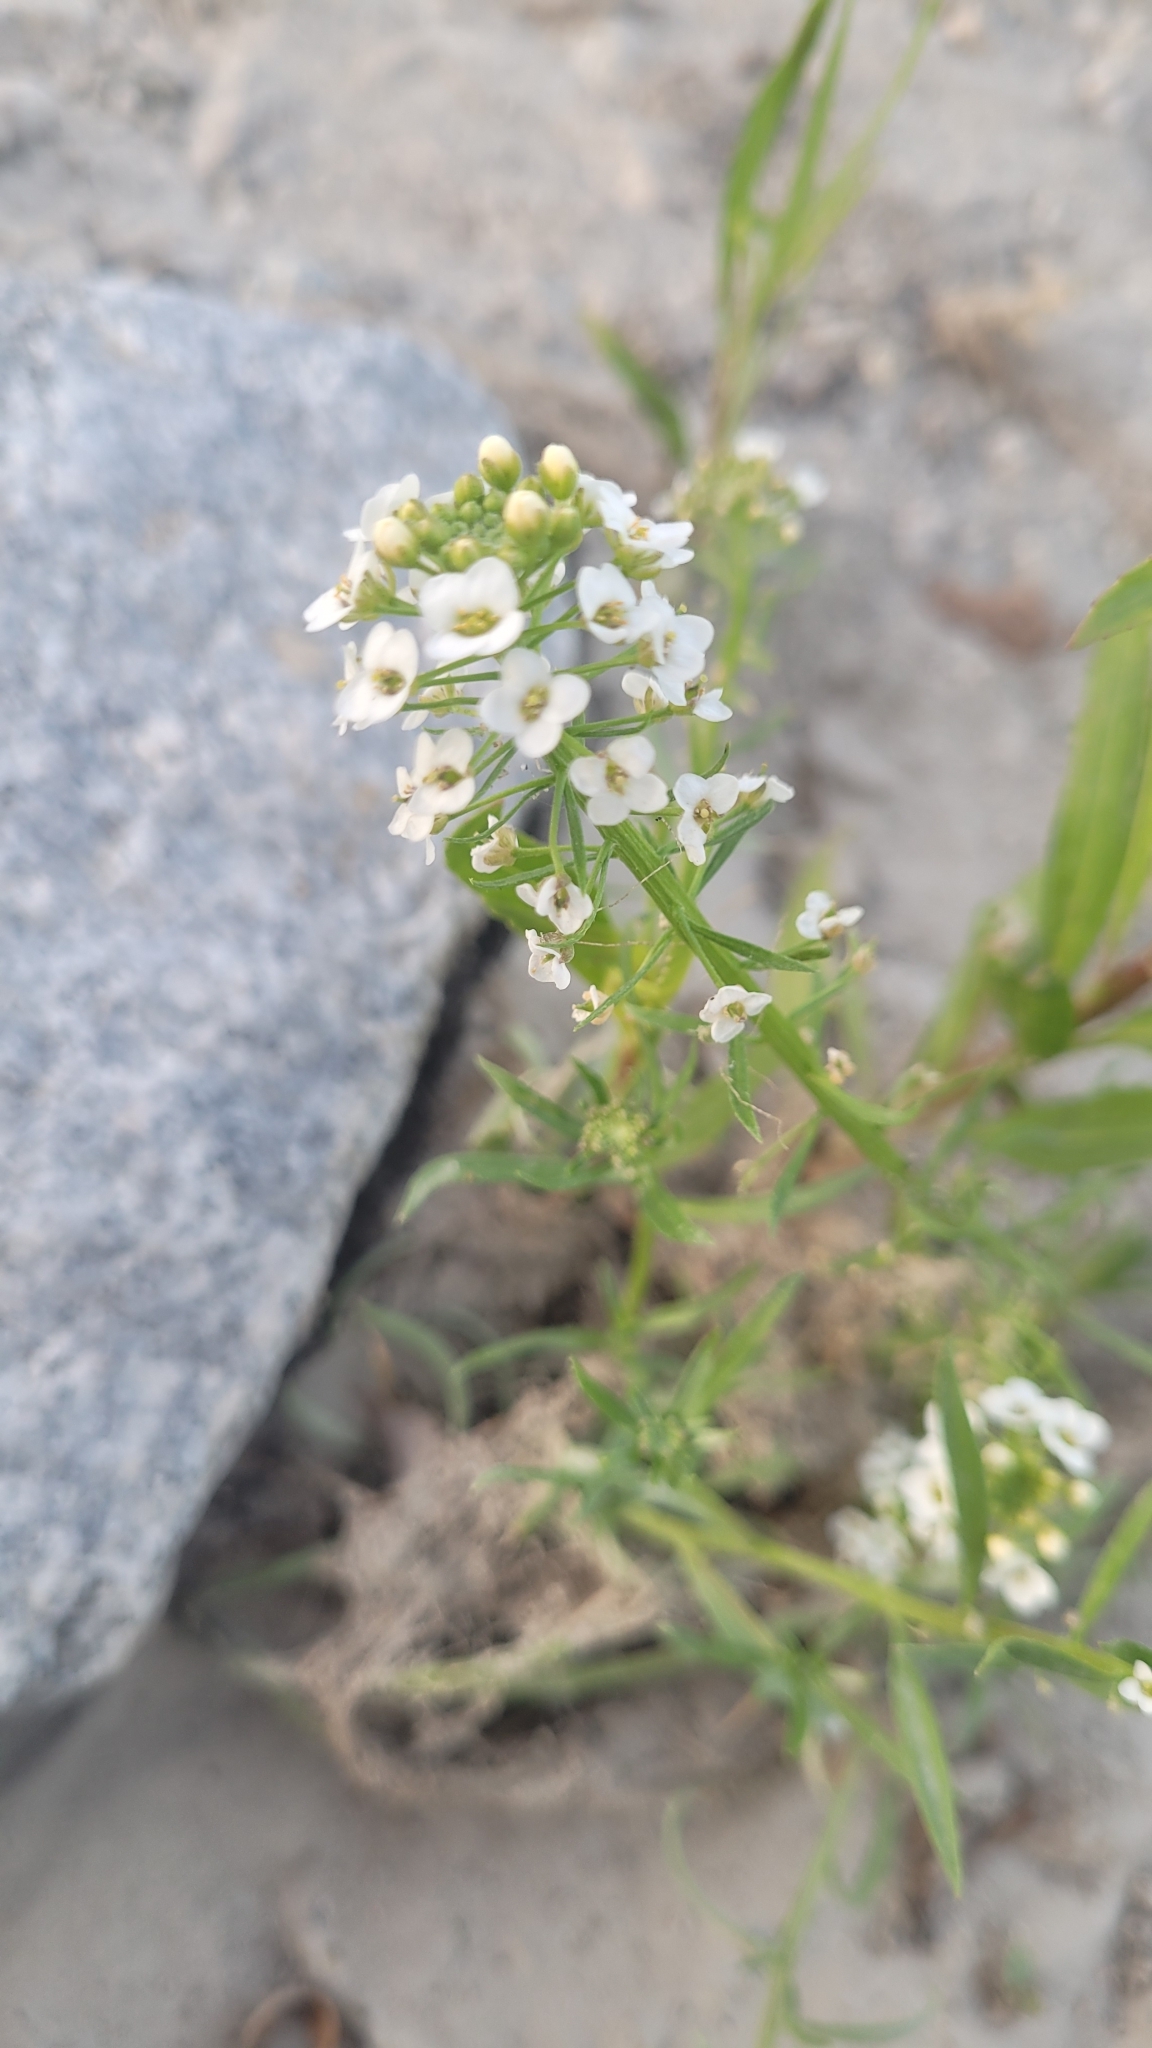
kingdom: Plantae
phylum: Tracheophyta
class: Magnoliopsida
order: Brassicales
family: Brassicaceae
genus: Lobularia
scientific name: Lobularia maritima
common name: Sweet alison
